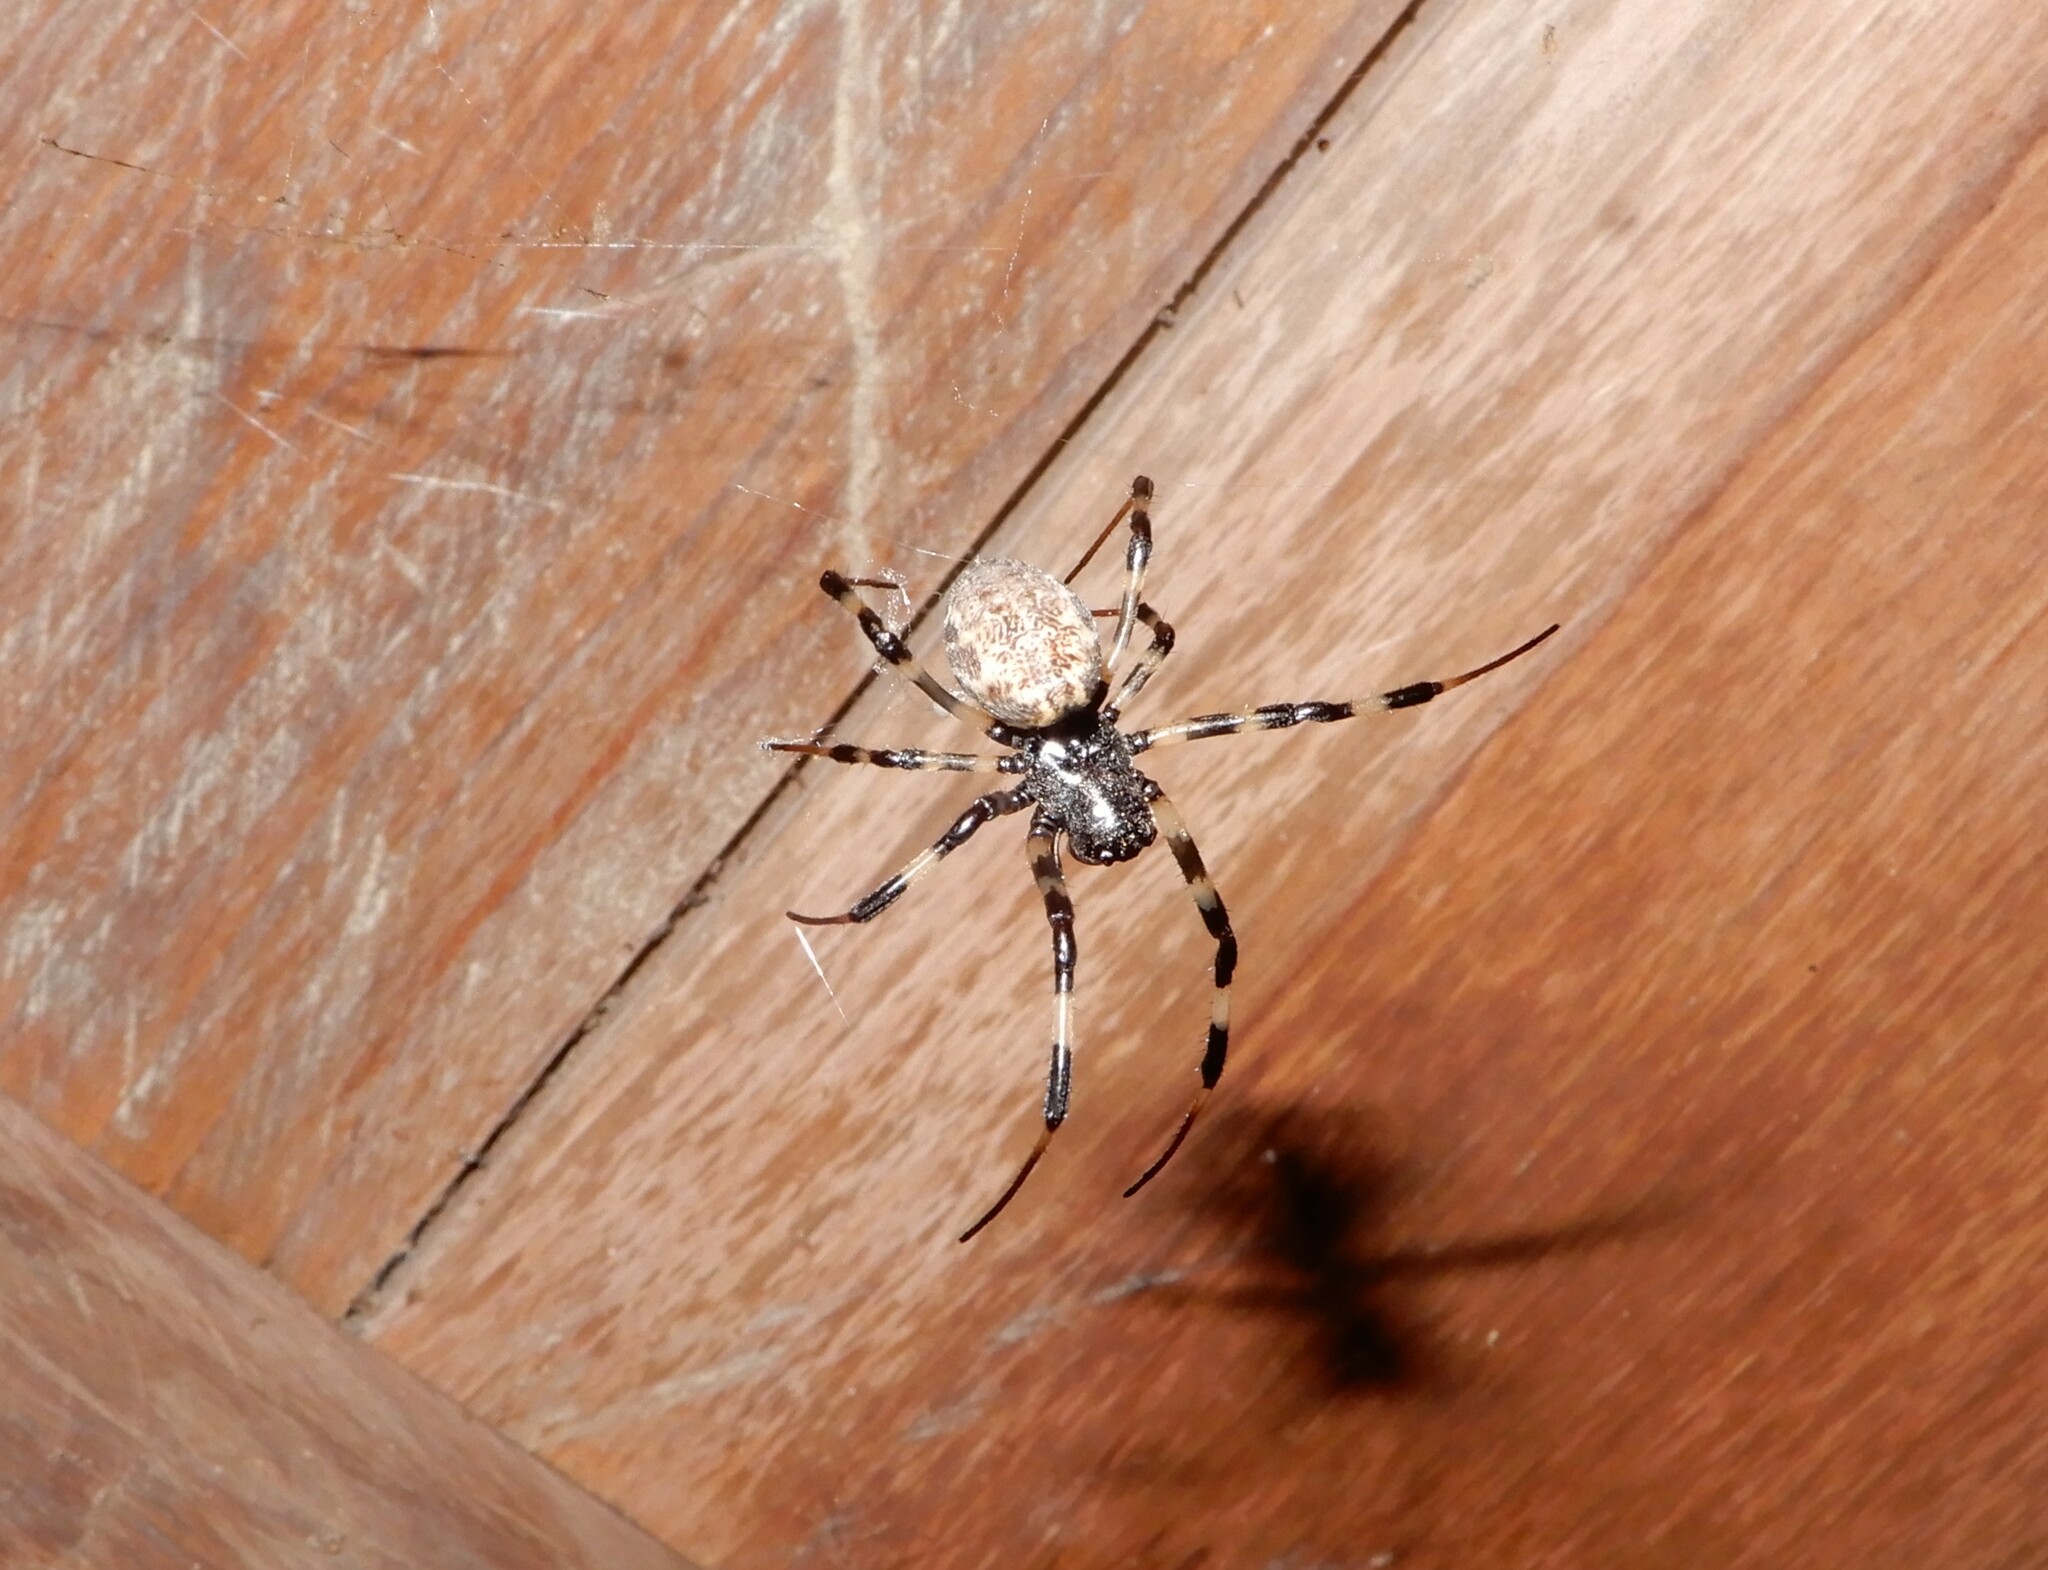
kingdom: Animalia
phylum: Arthropoda
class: Arachnida
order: Araneae
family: Araneidae
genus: Nephilengys
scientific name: Nephilengys malabarensis
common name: Asian hermit spider
